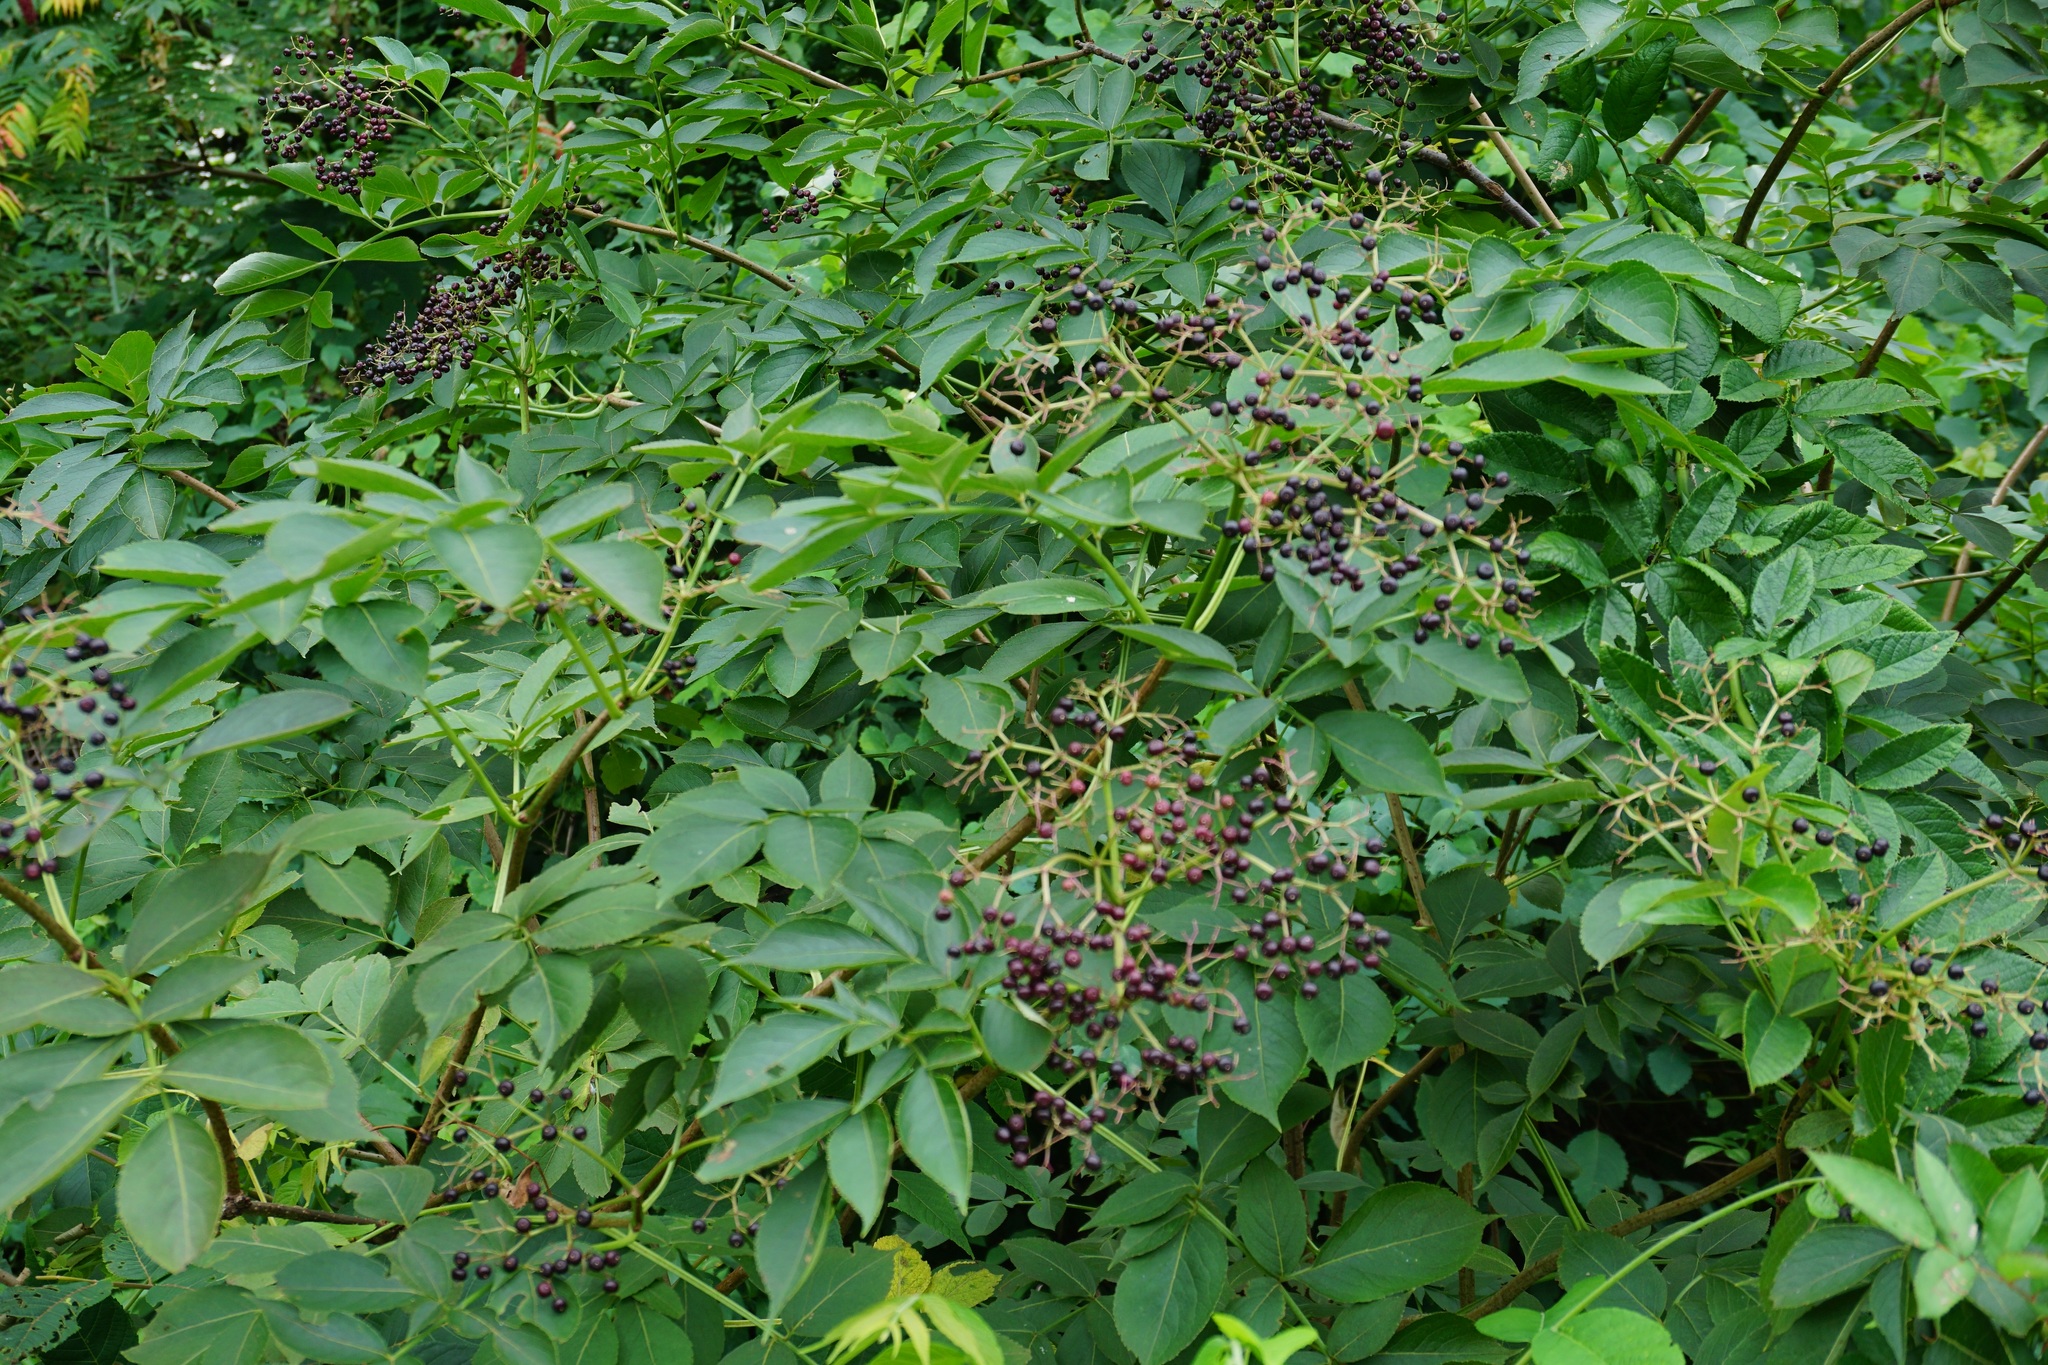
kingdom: Plantae
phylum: Tracheophyta
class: Magnoliopsida
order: Dipsacales
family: Viburnaceae
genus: Sambucus
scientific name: Sambucus canadensis
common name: American elder
